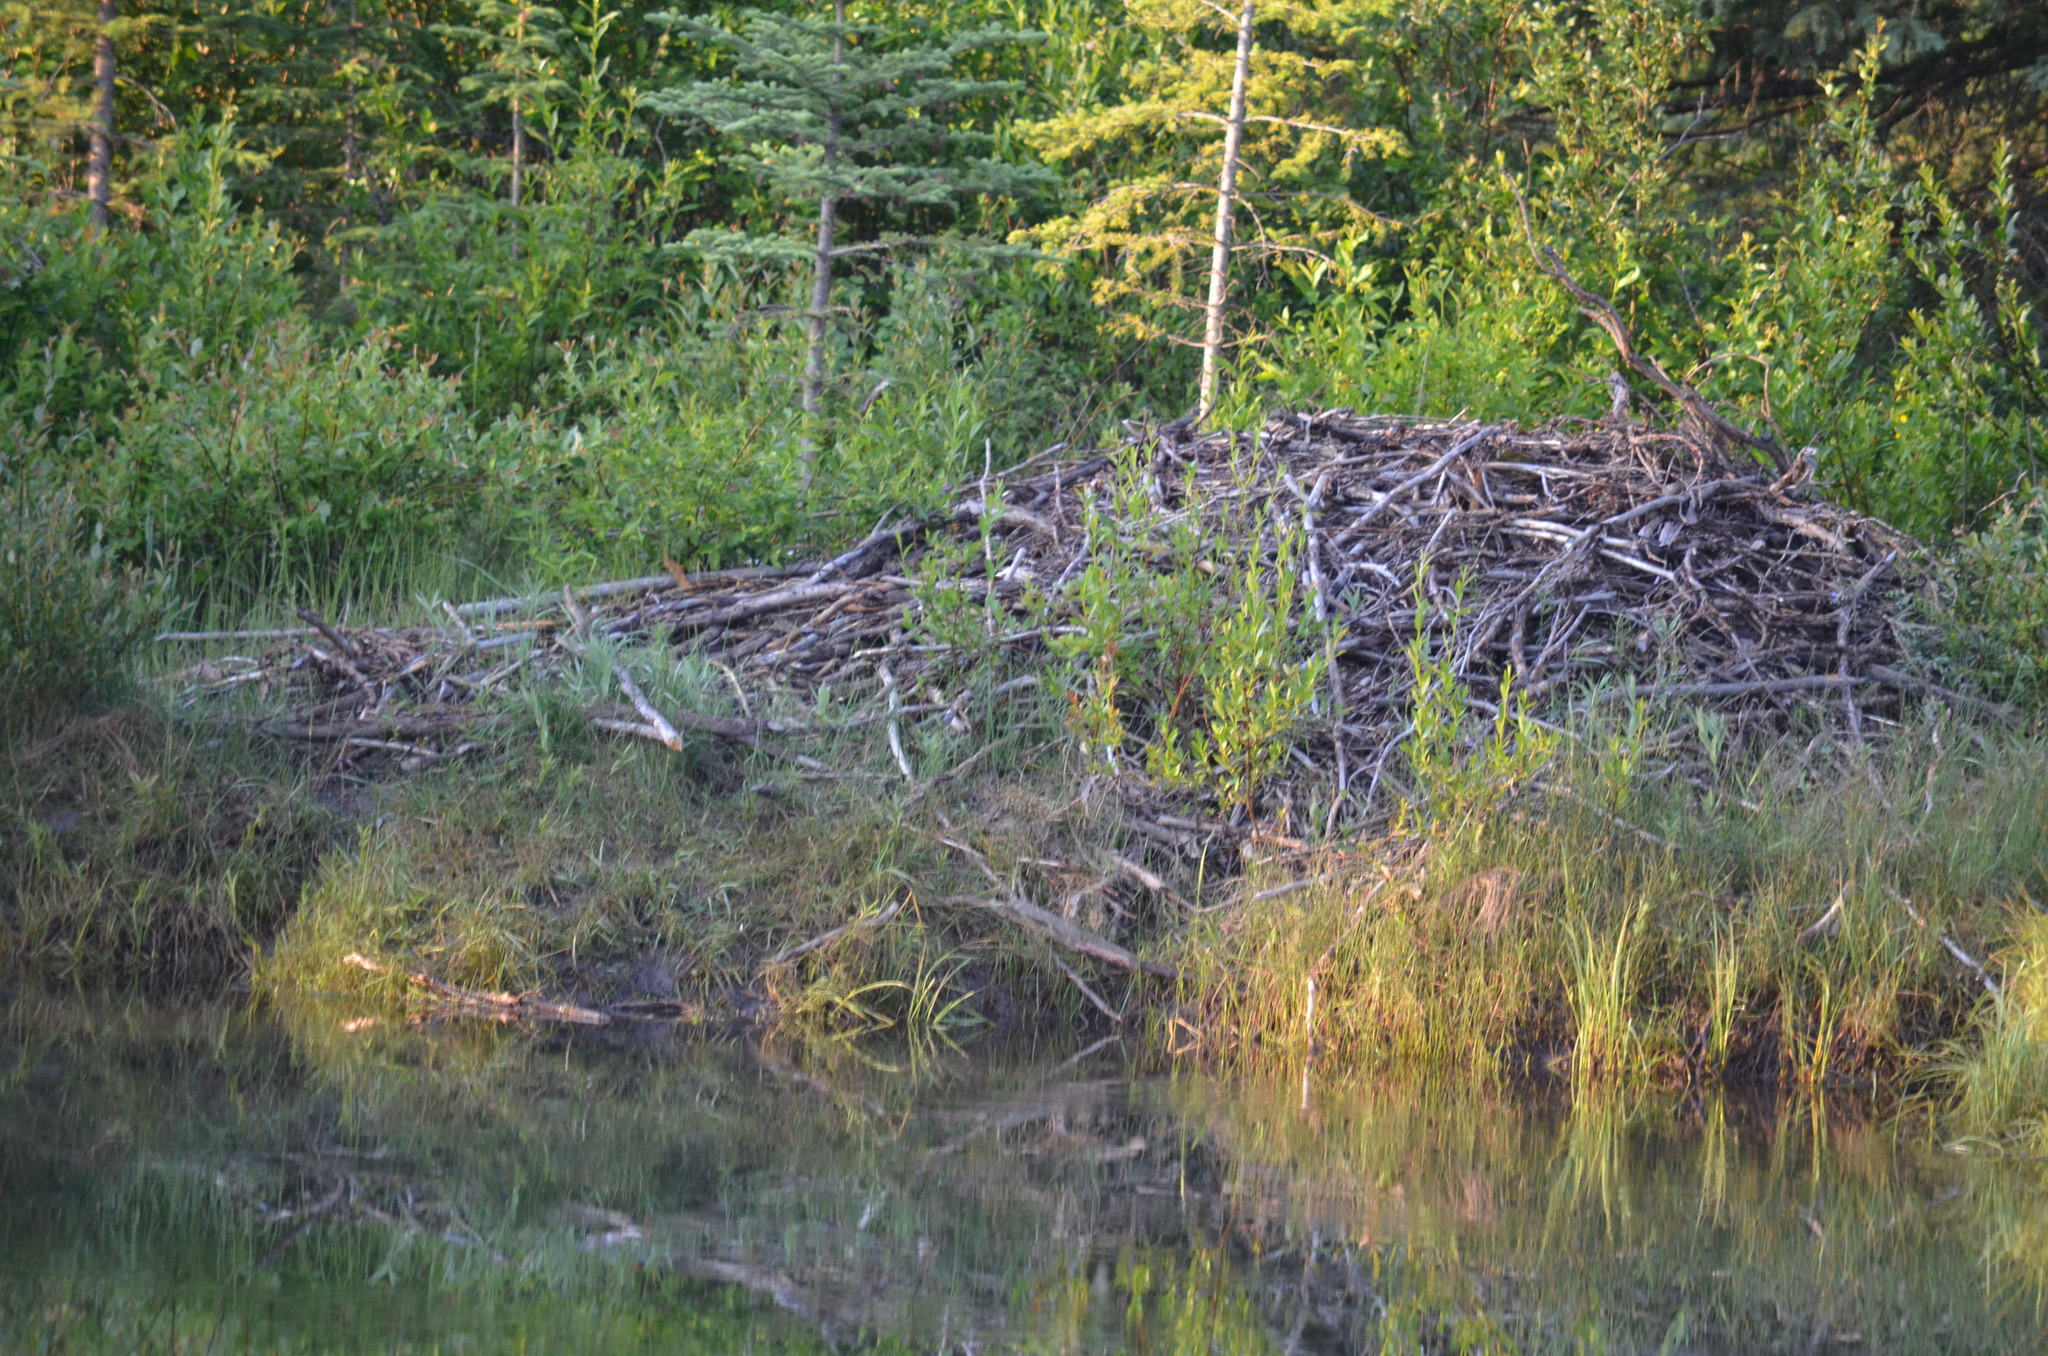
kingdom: Animalia
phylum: Chordata
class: Mammalia
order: Rodentia
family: Castoridae
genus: Castor
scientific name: Castor canadensis
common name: American beaver
